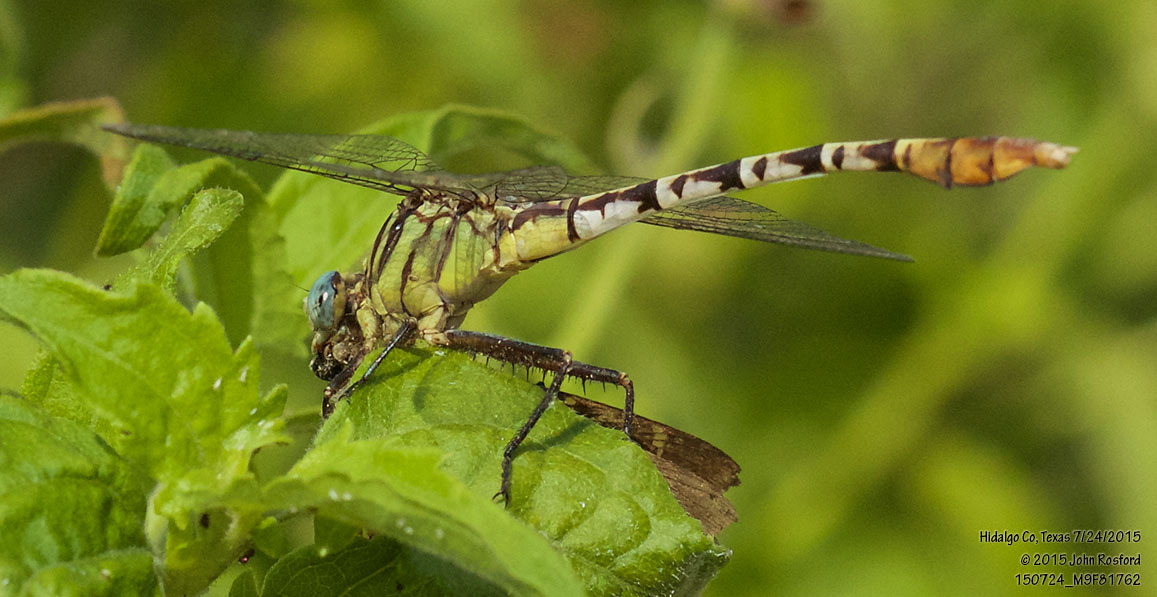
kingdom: Animalia
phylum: Arthropoda
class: Insecta
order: Odonata
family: Gomphidae
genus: Dromogomphus
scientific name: Dromogomphus spoliatus
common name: Flag-tailed spinyleg
